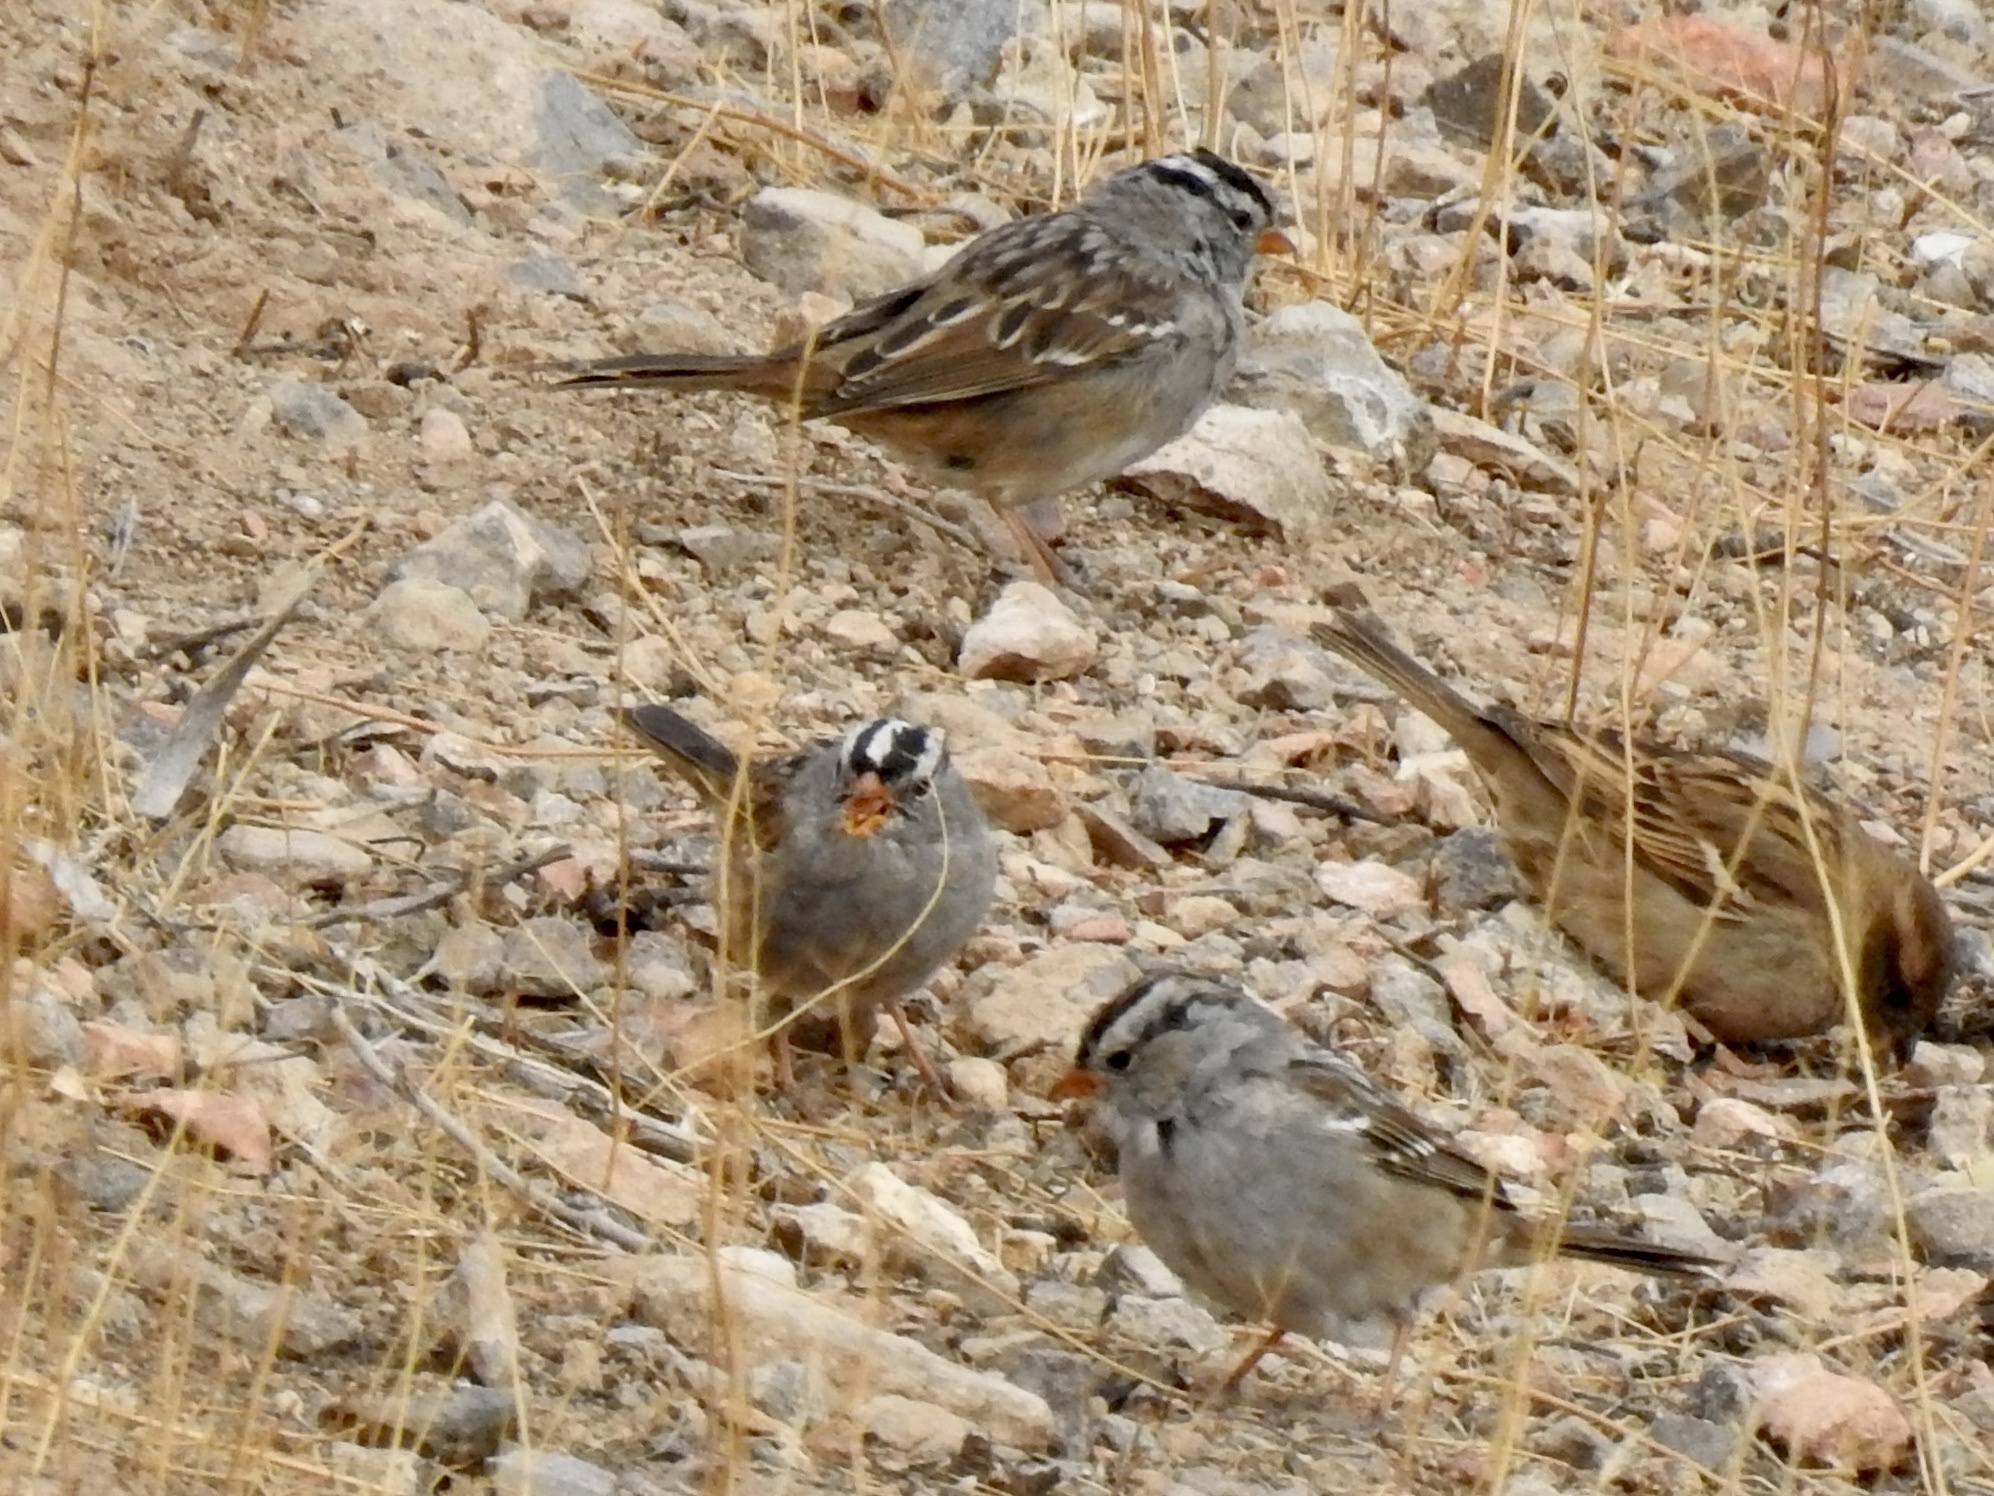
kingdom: Animalia
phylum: Chordata
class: Aves
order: Passeriformes
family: Passerellidae
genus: Zonotrichia
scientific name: Zonotrichia leucophrys
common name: White-crowned sparrow
